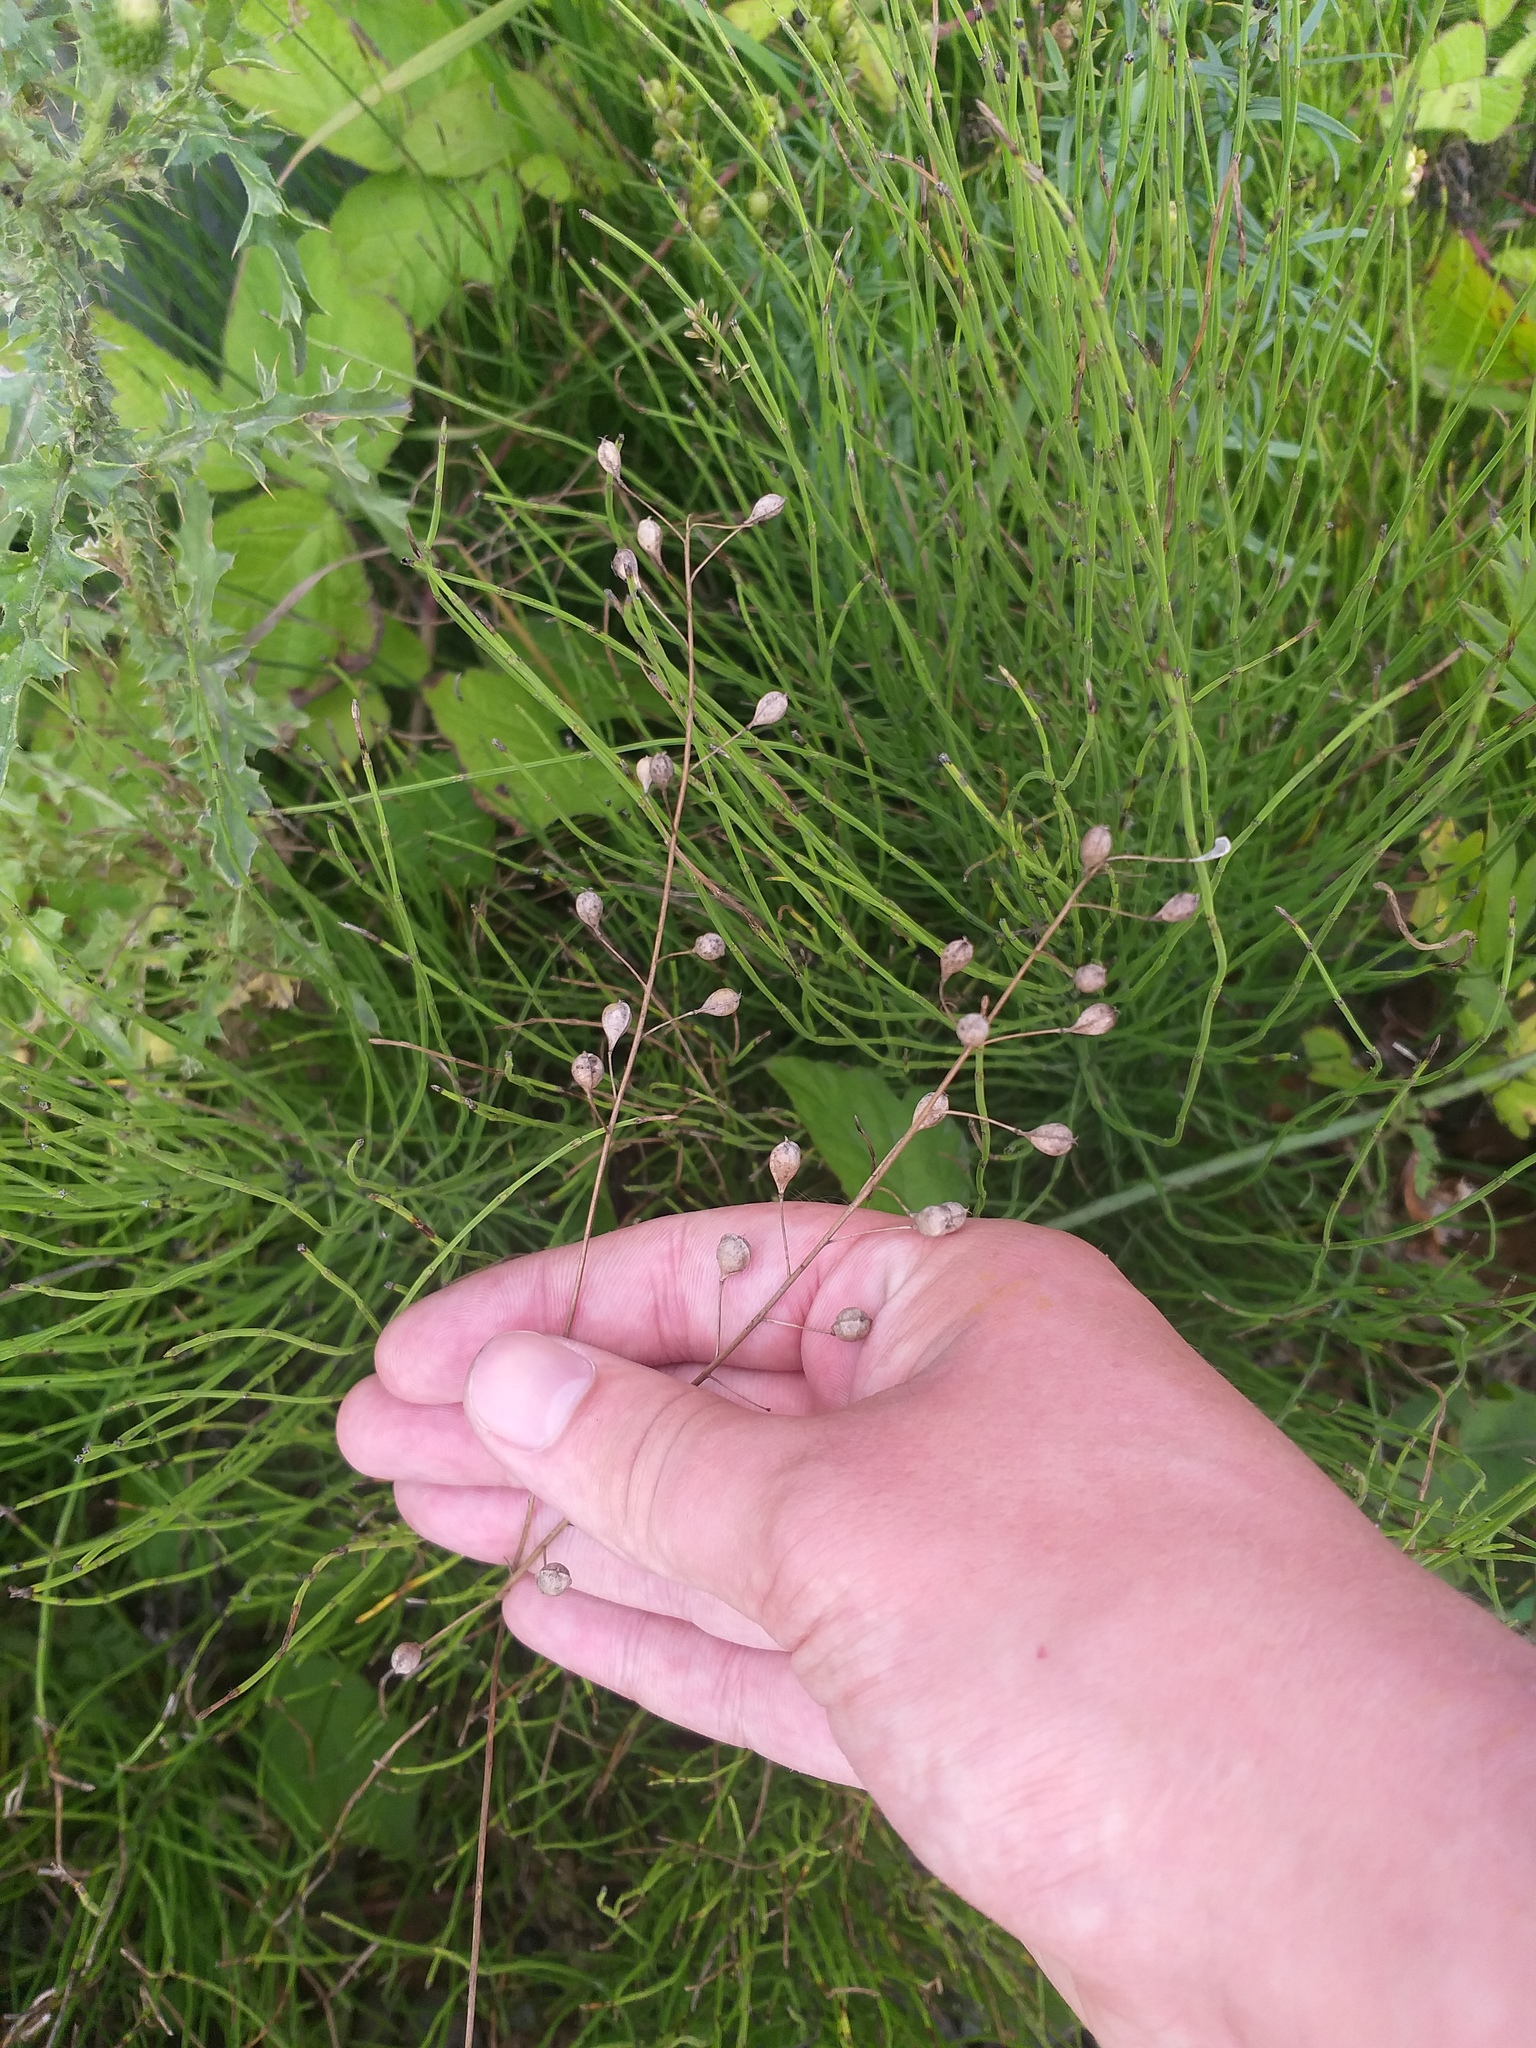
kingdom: Plantae
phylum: Tracheophyta
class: Magnoliopsida
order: Brassicales
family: Brassicaceae
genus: Camelina
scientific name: Camelina sativa
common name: Gold-of-pleasure
